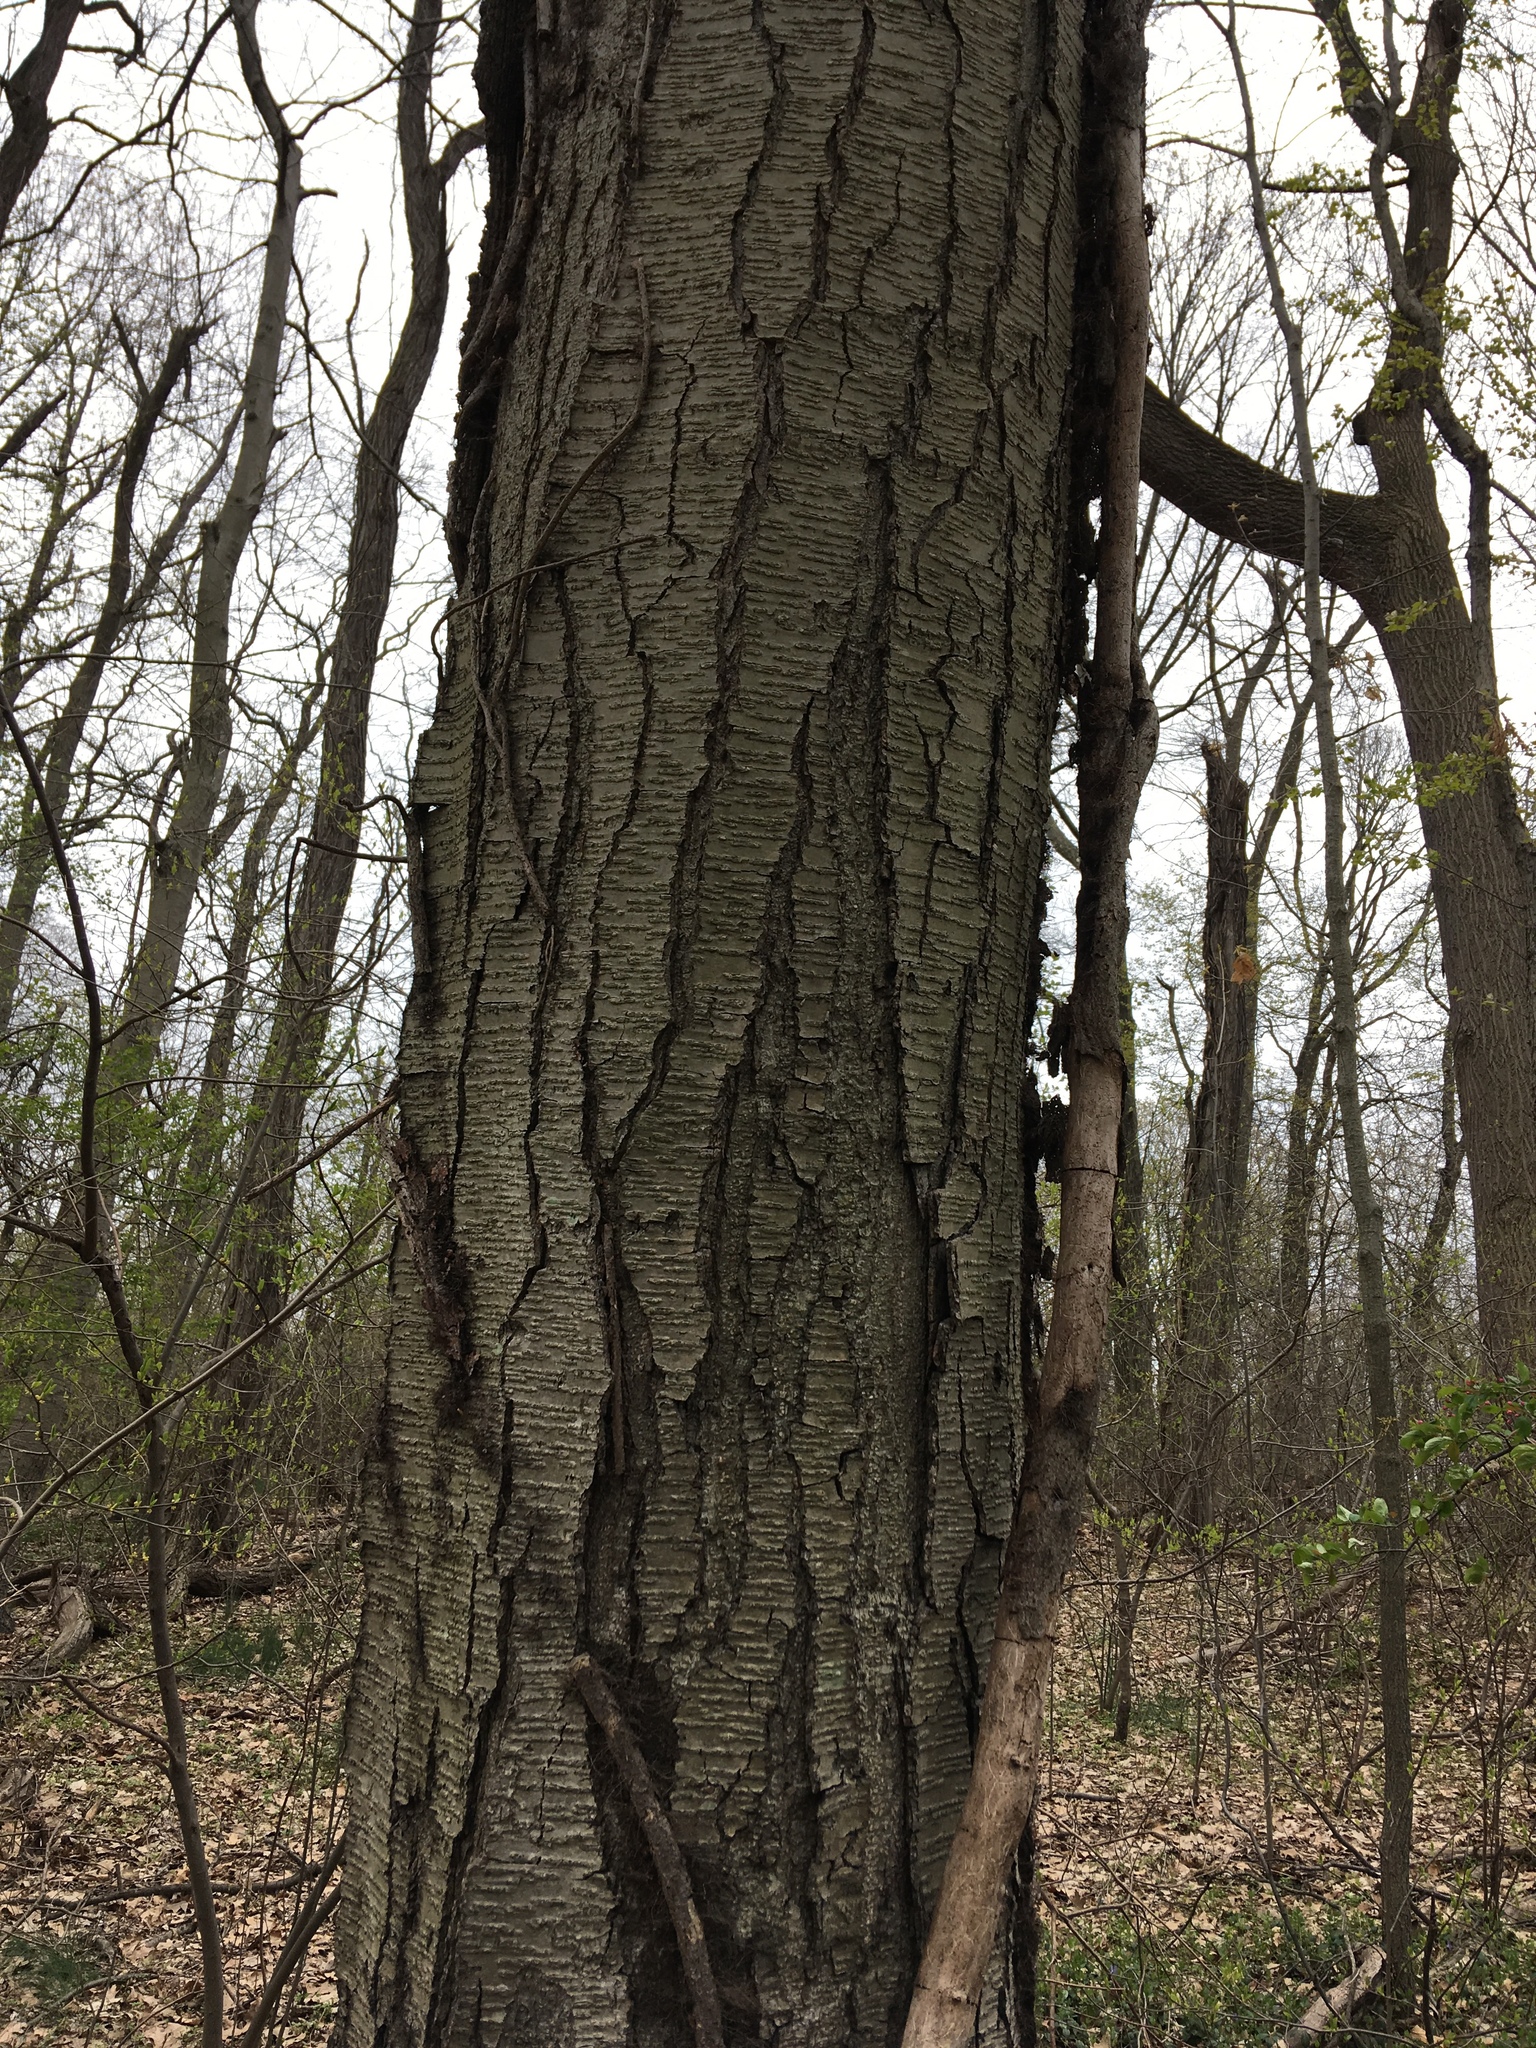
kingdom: Plantae
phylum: Tracheophyta
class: Magnoliopsida
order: Fagales
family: Betulaceae
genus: Betula
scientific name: Betula lenta
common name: Black birch
